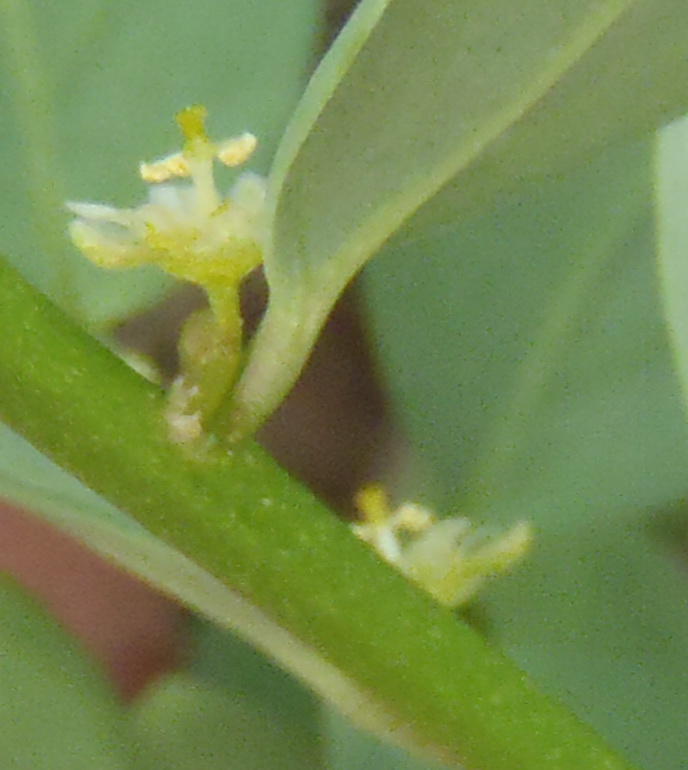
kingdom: Plantae
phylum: Tracheophyta
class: Magnoliopsida
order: Malpighiales
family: Peraceae
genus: Clutia
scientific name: Clutia pulchella
